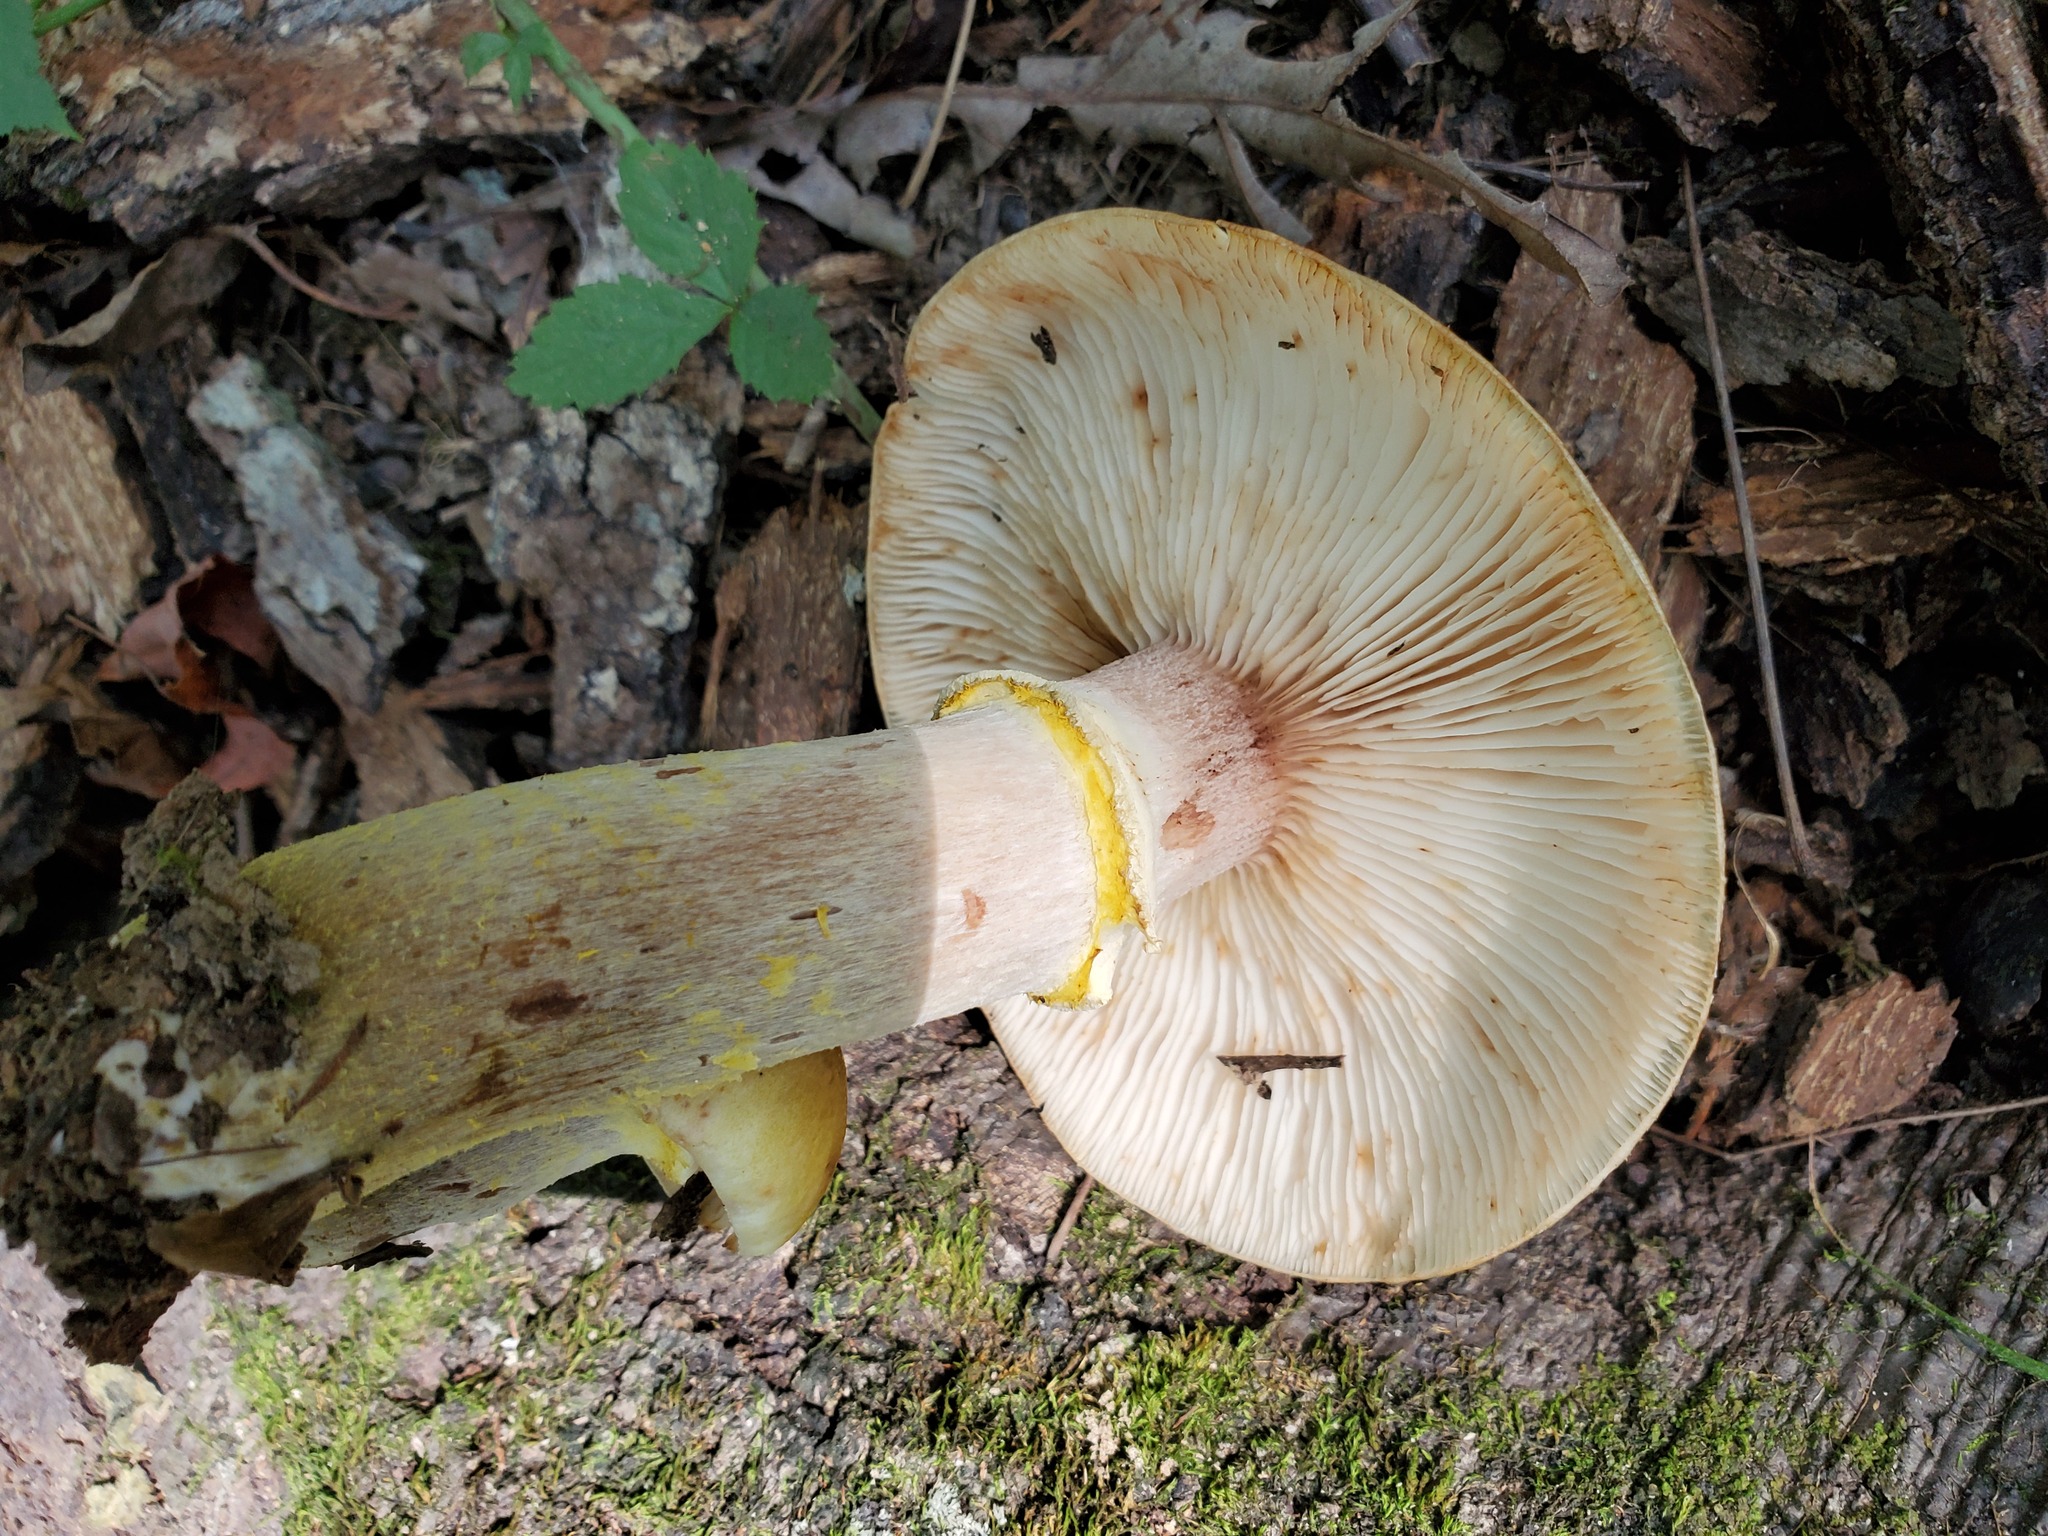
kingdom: Fungi
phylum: Basidiomycota
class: Agaricomycetes
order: Agaricales
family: Physalacriaceae
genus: Armillaria
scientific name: Armillaria mellea
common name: Honey fungus
